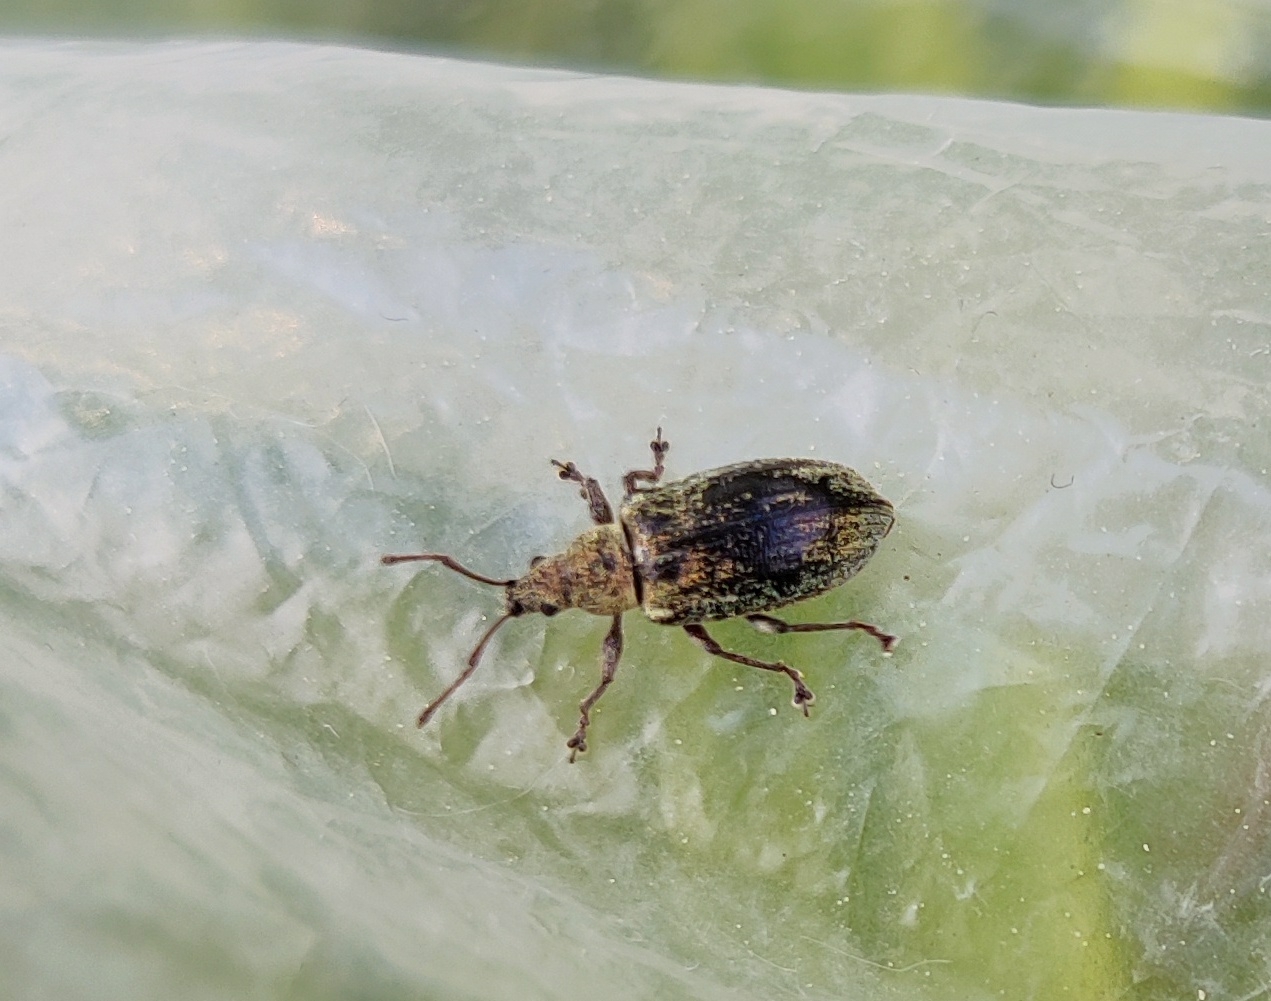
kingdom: Animalia
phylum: Arthropoda
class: Insecta
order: Coleoptera
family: Curculionidae
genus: Phyllobius
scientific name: Phyllobius pyri
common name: Common leaf weevil
